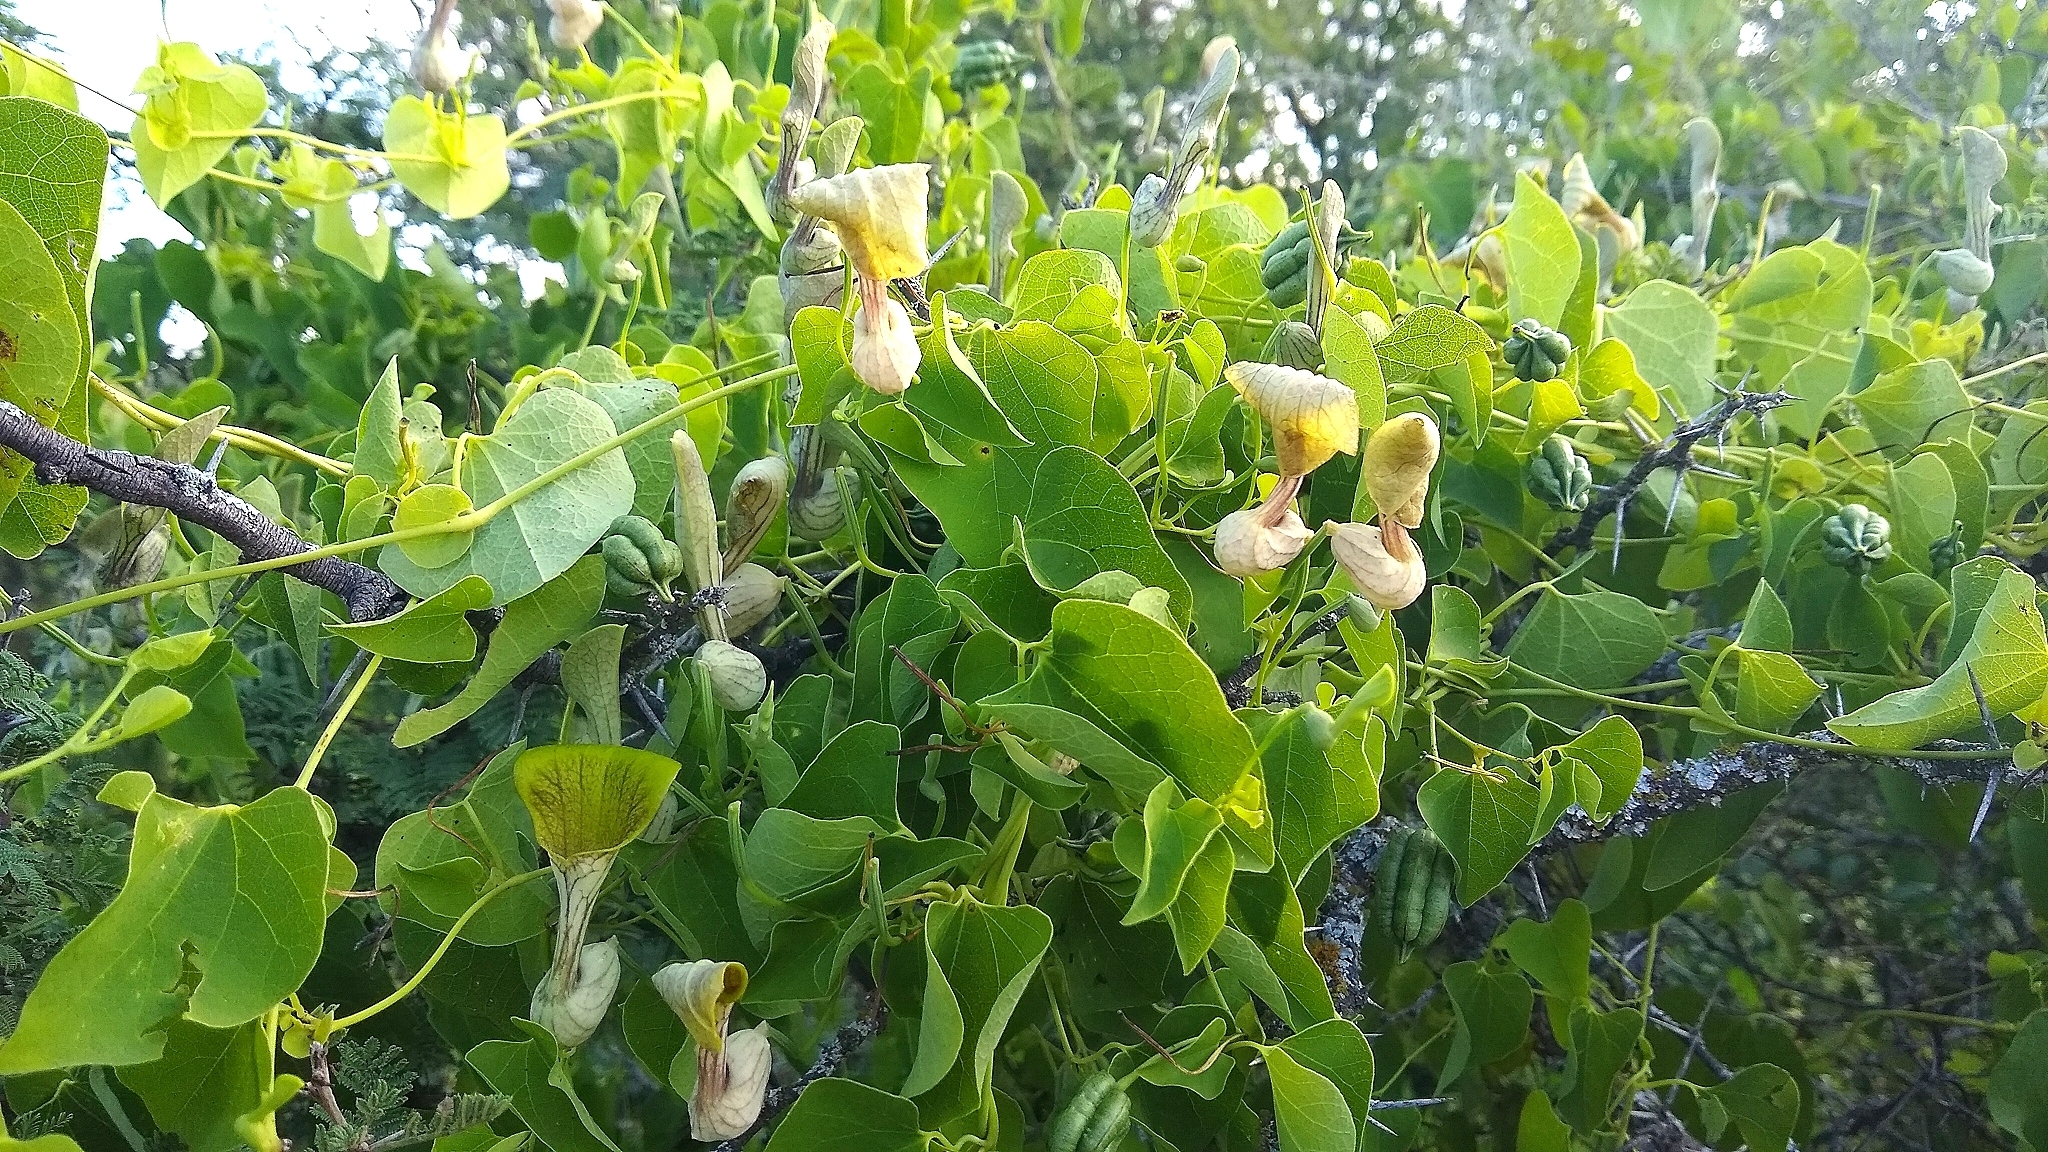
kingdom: Plantae
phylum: Tracheophyta
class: Magnoliopsida
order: Piperales
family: Aristolochiaceae
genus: Aristolochia
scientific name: Aristolochia argentina
